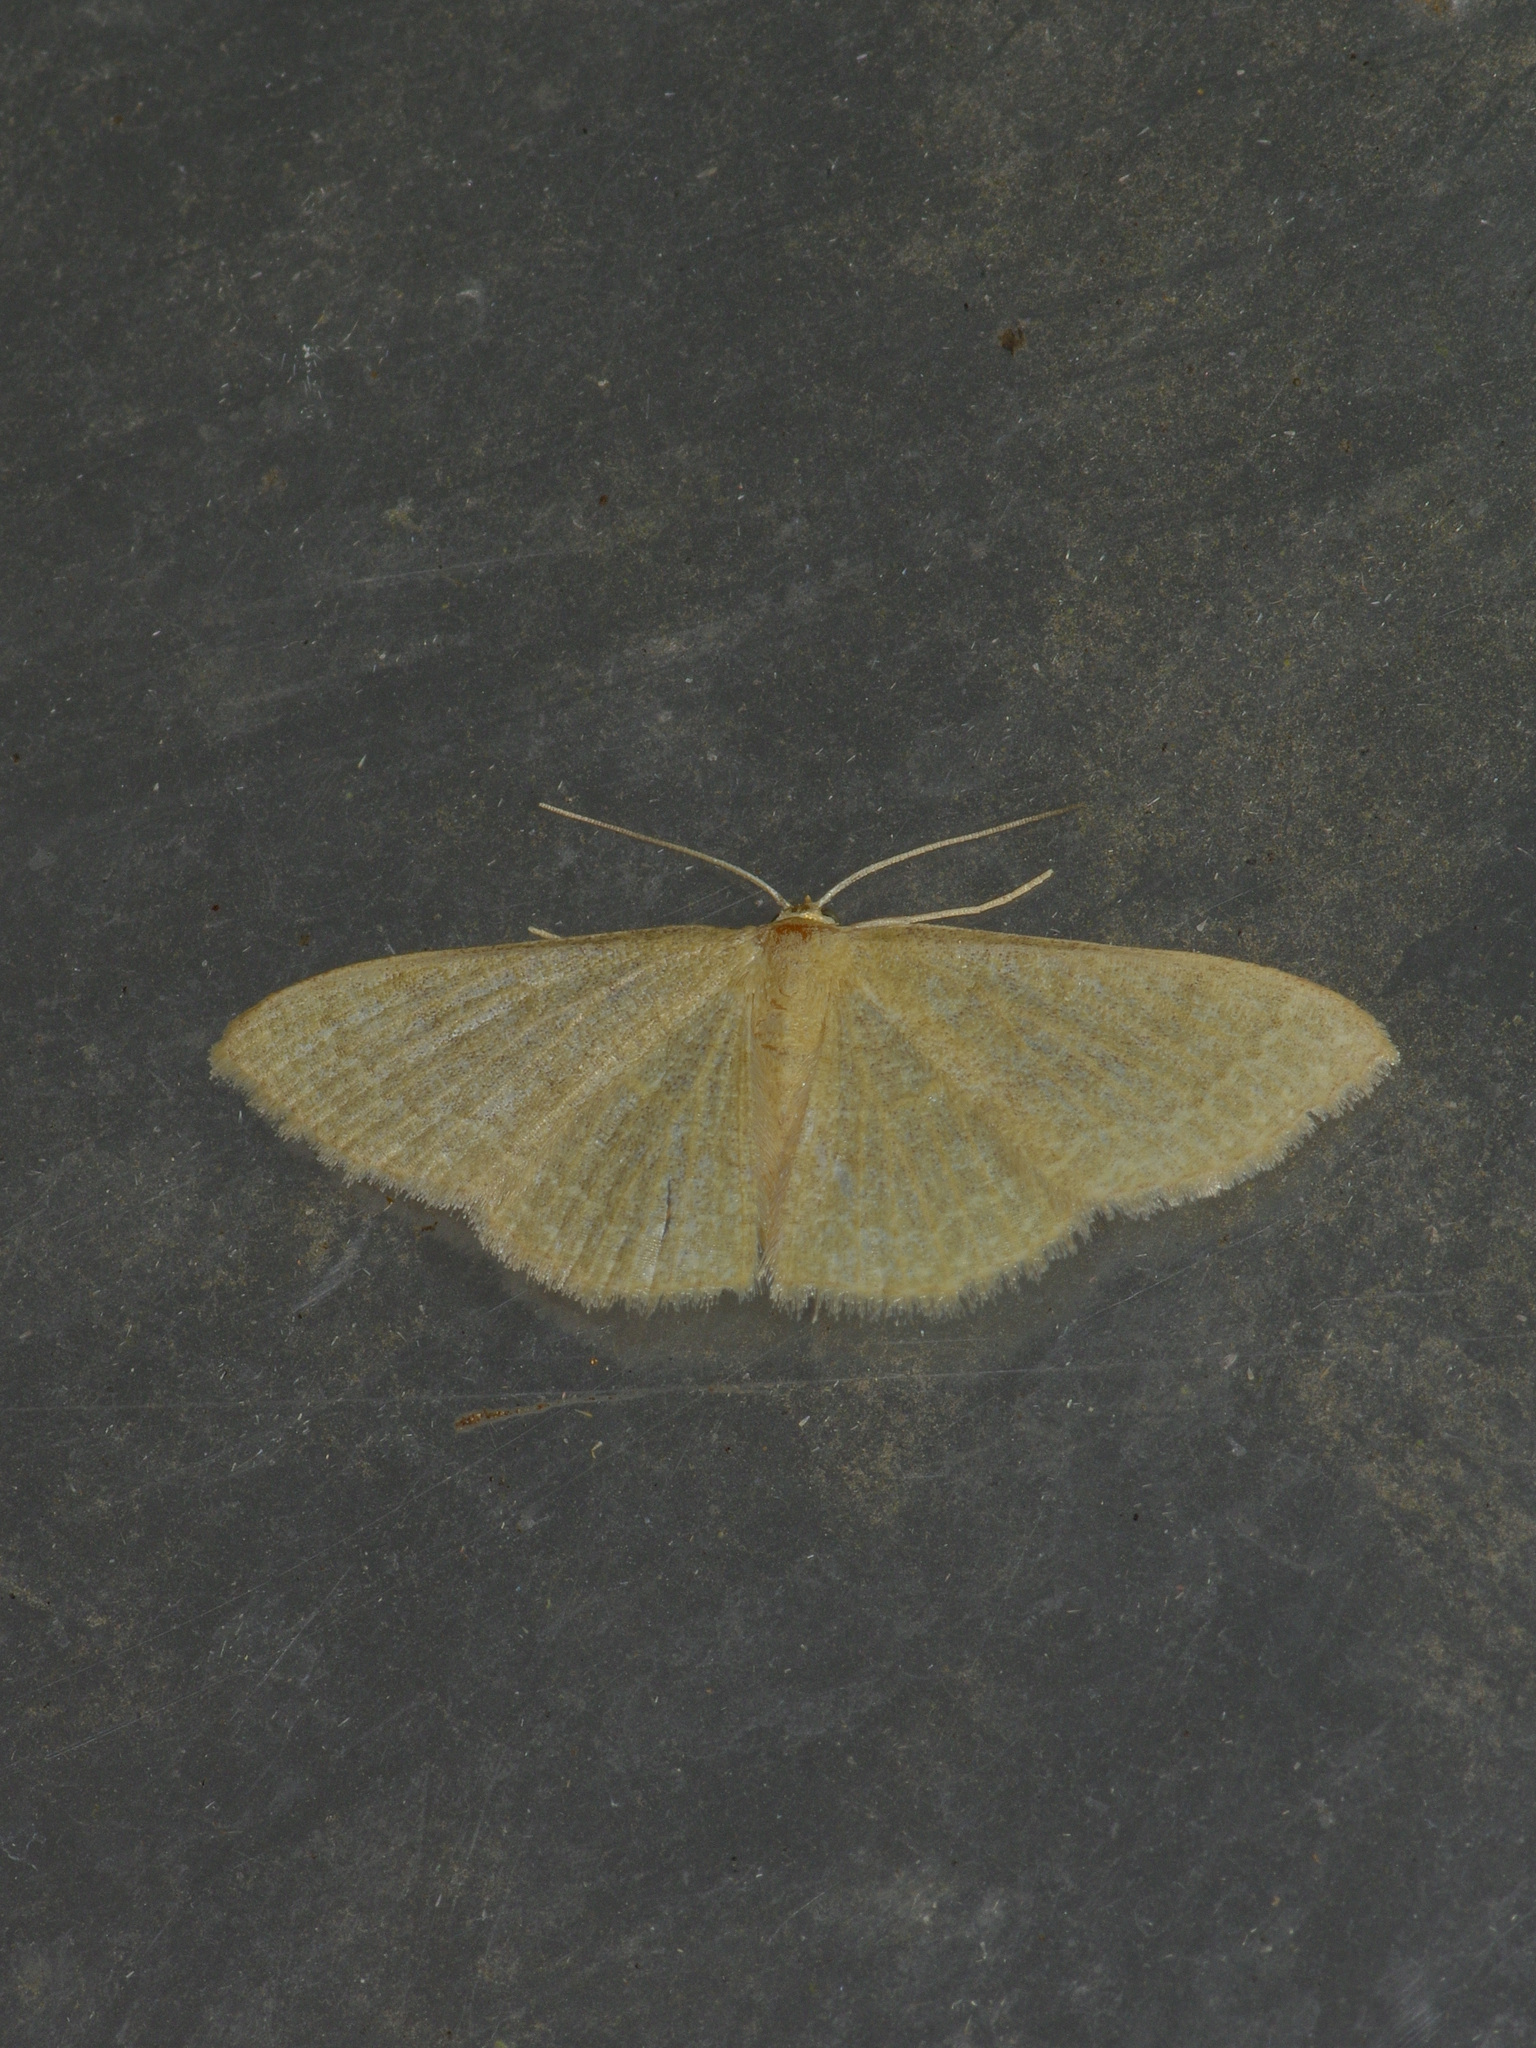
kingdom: Animalia
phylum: Arthropoda
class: Insecta
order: Lepidoptera
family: Geometridae
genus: Pleuroprucha
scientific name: Pleuroprucha insulsaria
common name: Common tan wave
